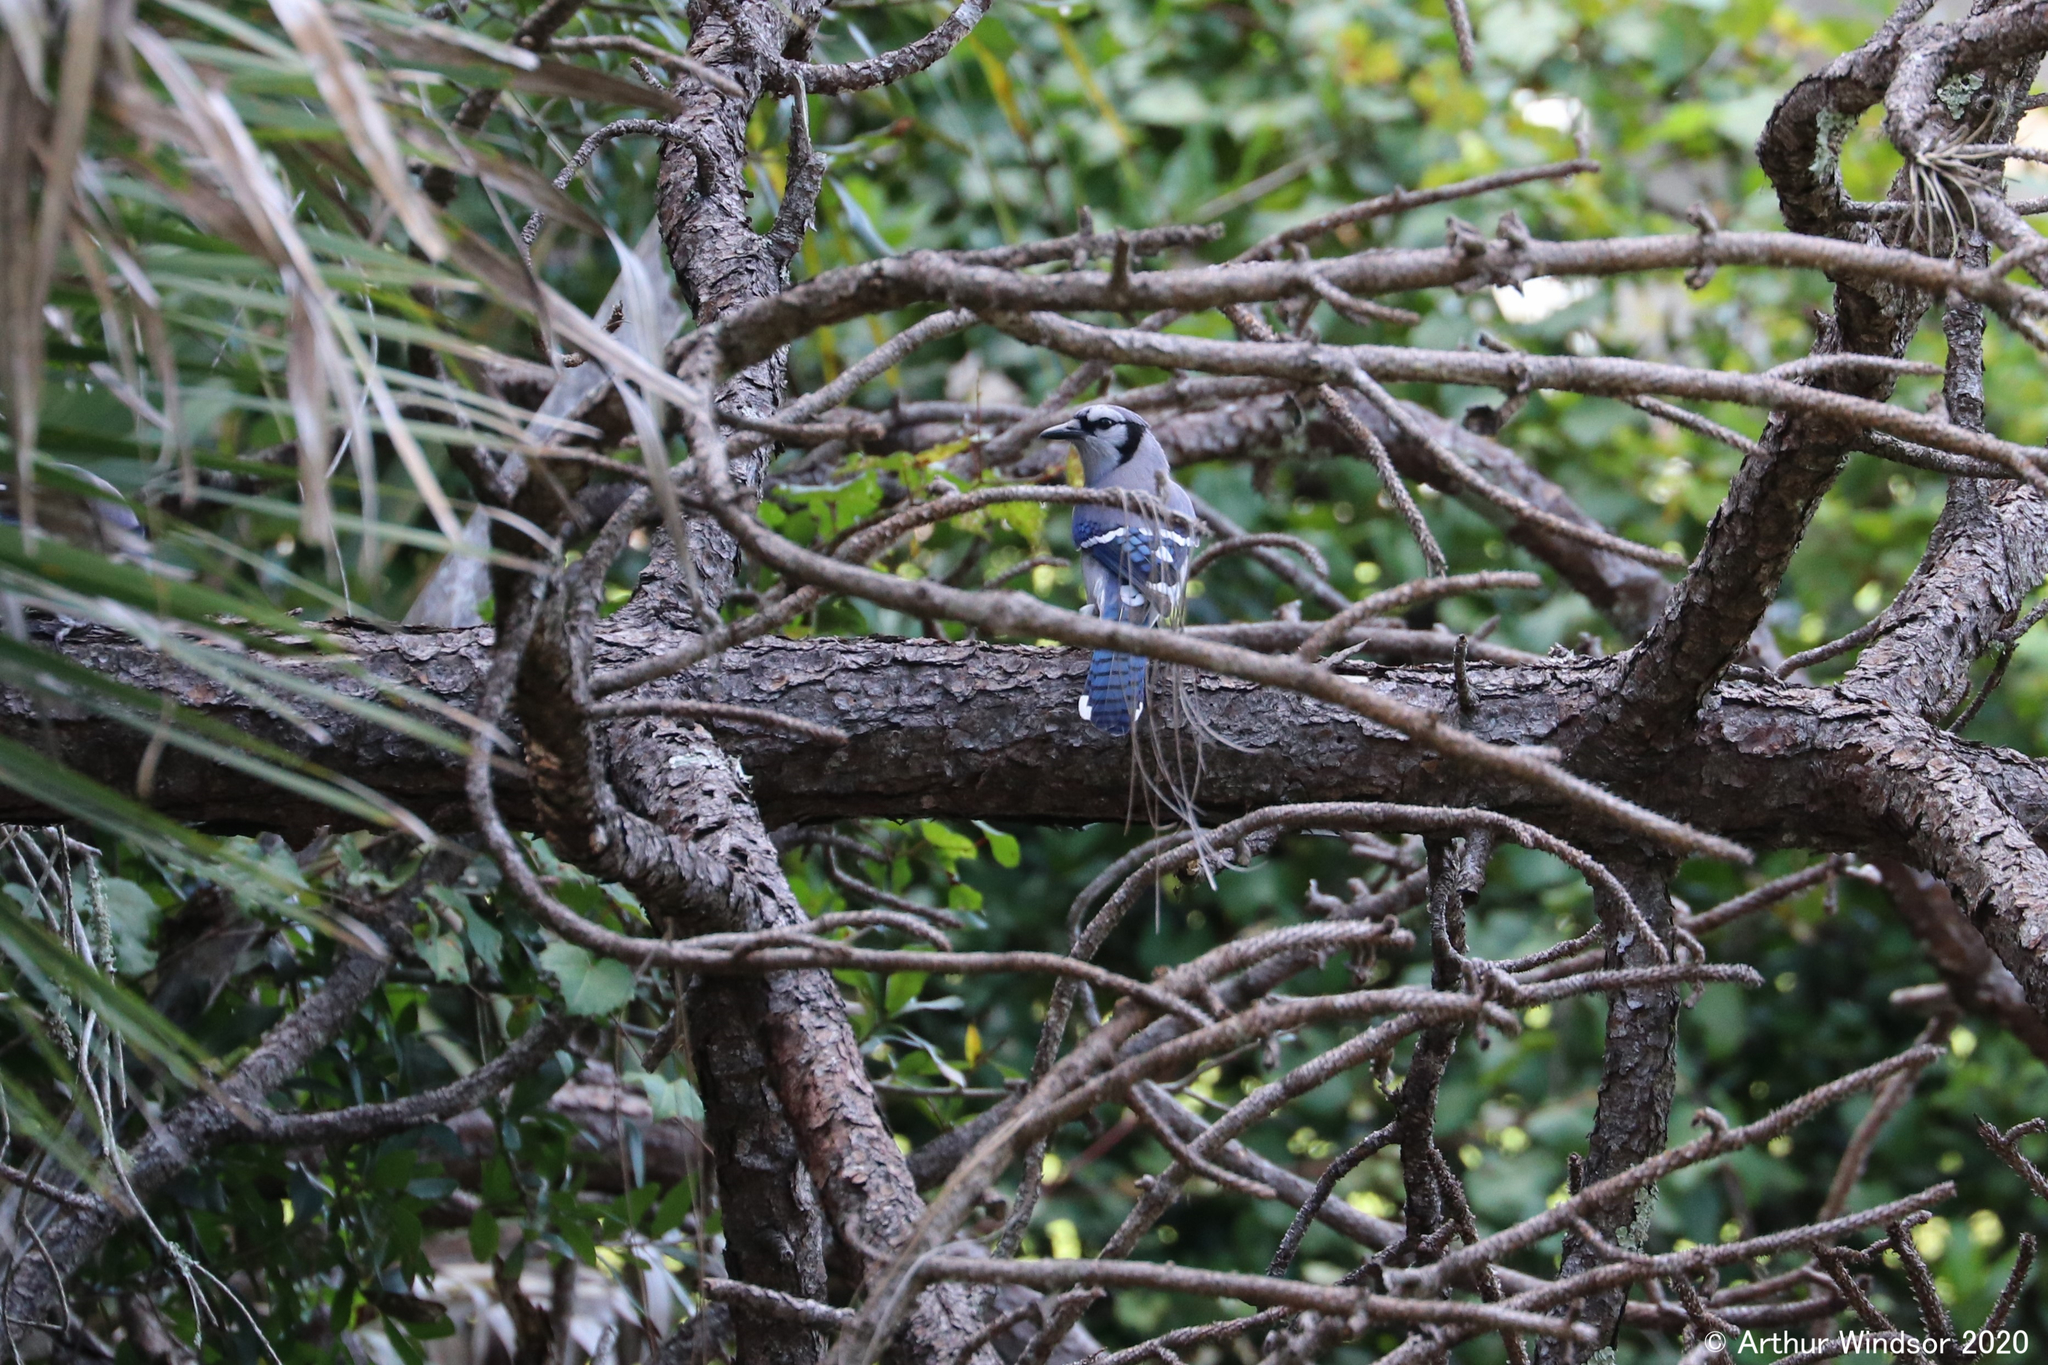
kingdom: Animalia
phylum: Chordata
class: Aves
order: Passeriformes
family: Corvidae
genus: Cyanocitta
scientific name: Cyanocitta cristata
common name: Blue jay
